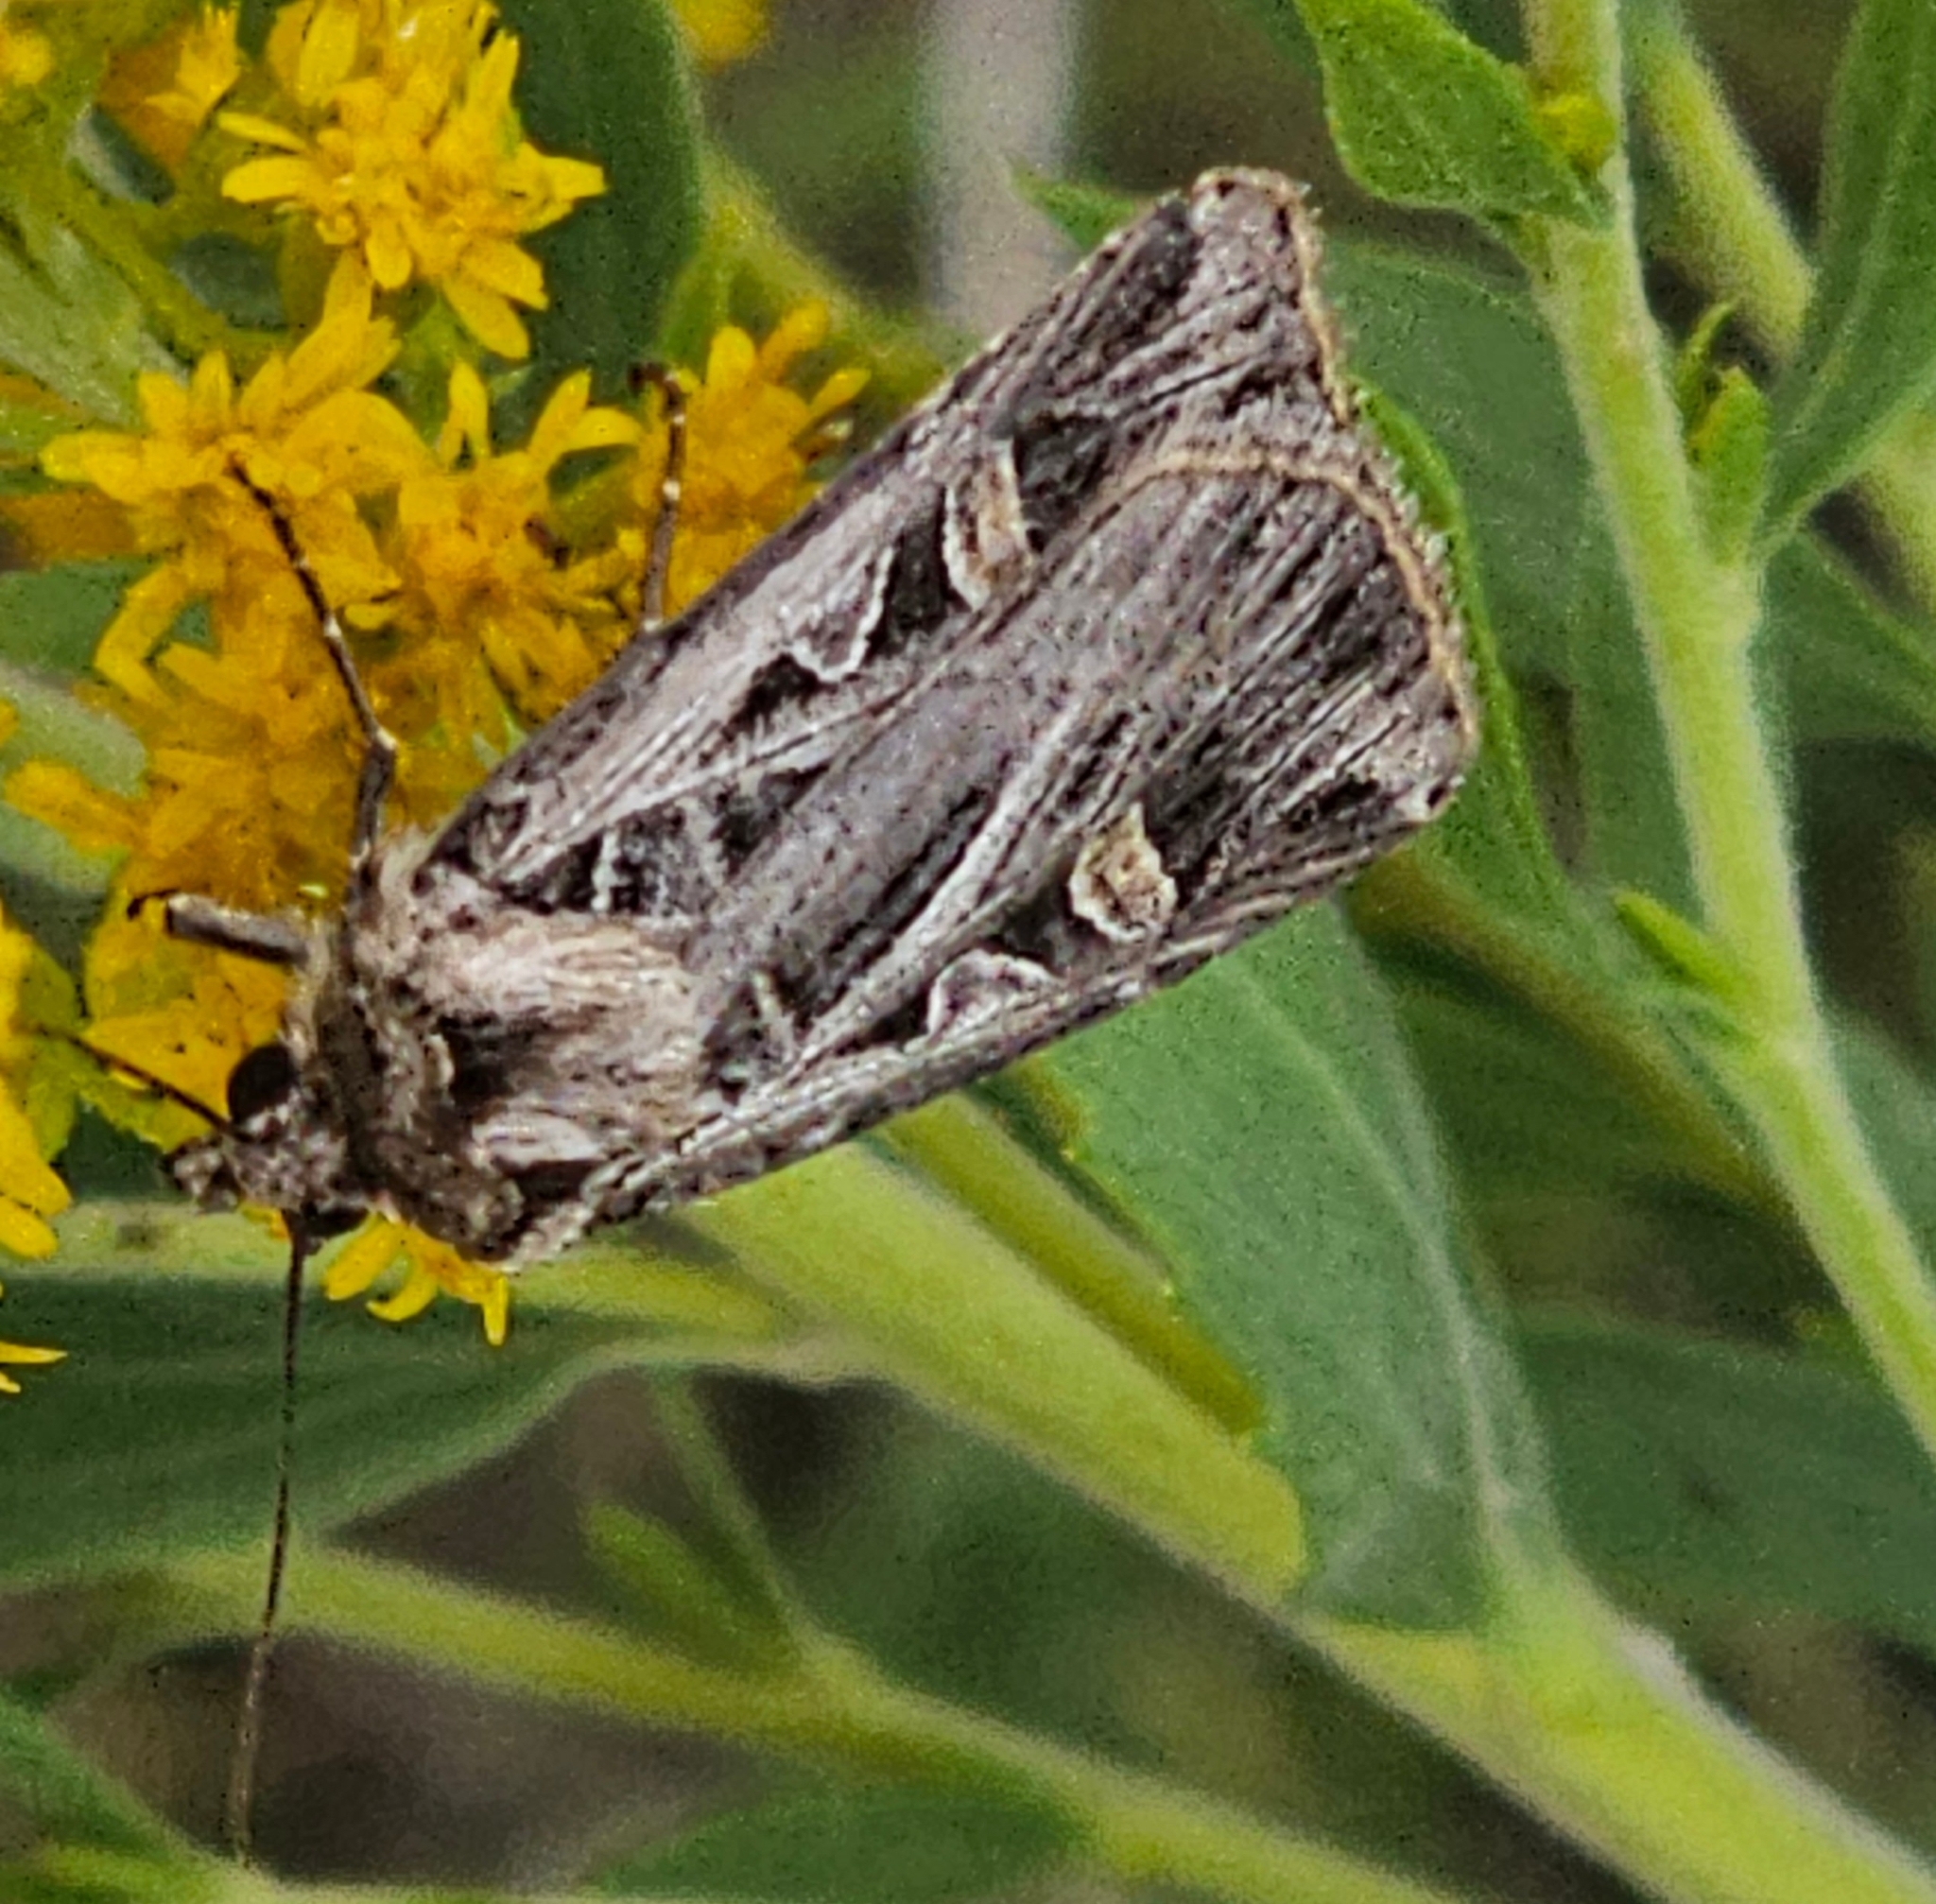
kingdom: Animalia
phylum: Arthropoda
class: Insecta
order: Lepidoptera
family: Noctuidae
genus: Feltia
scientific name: Feltia jaculifera
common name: Dingy cutworm moth
